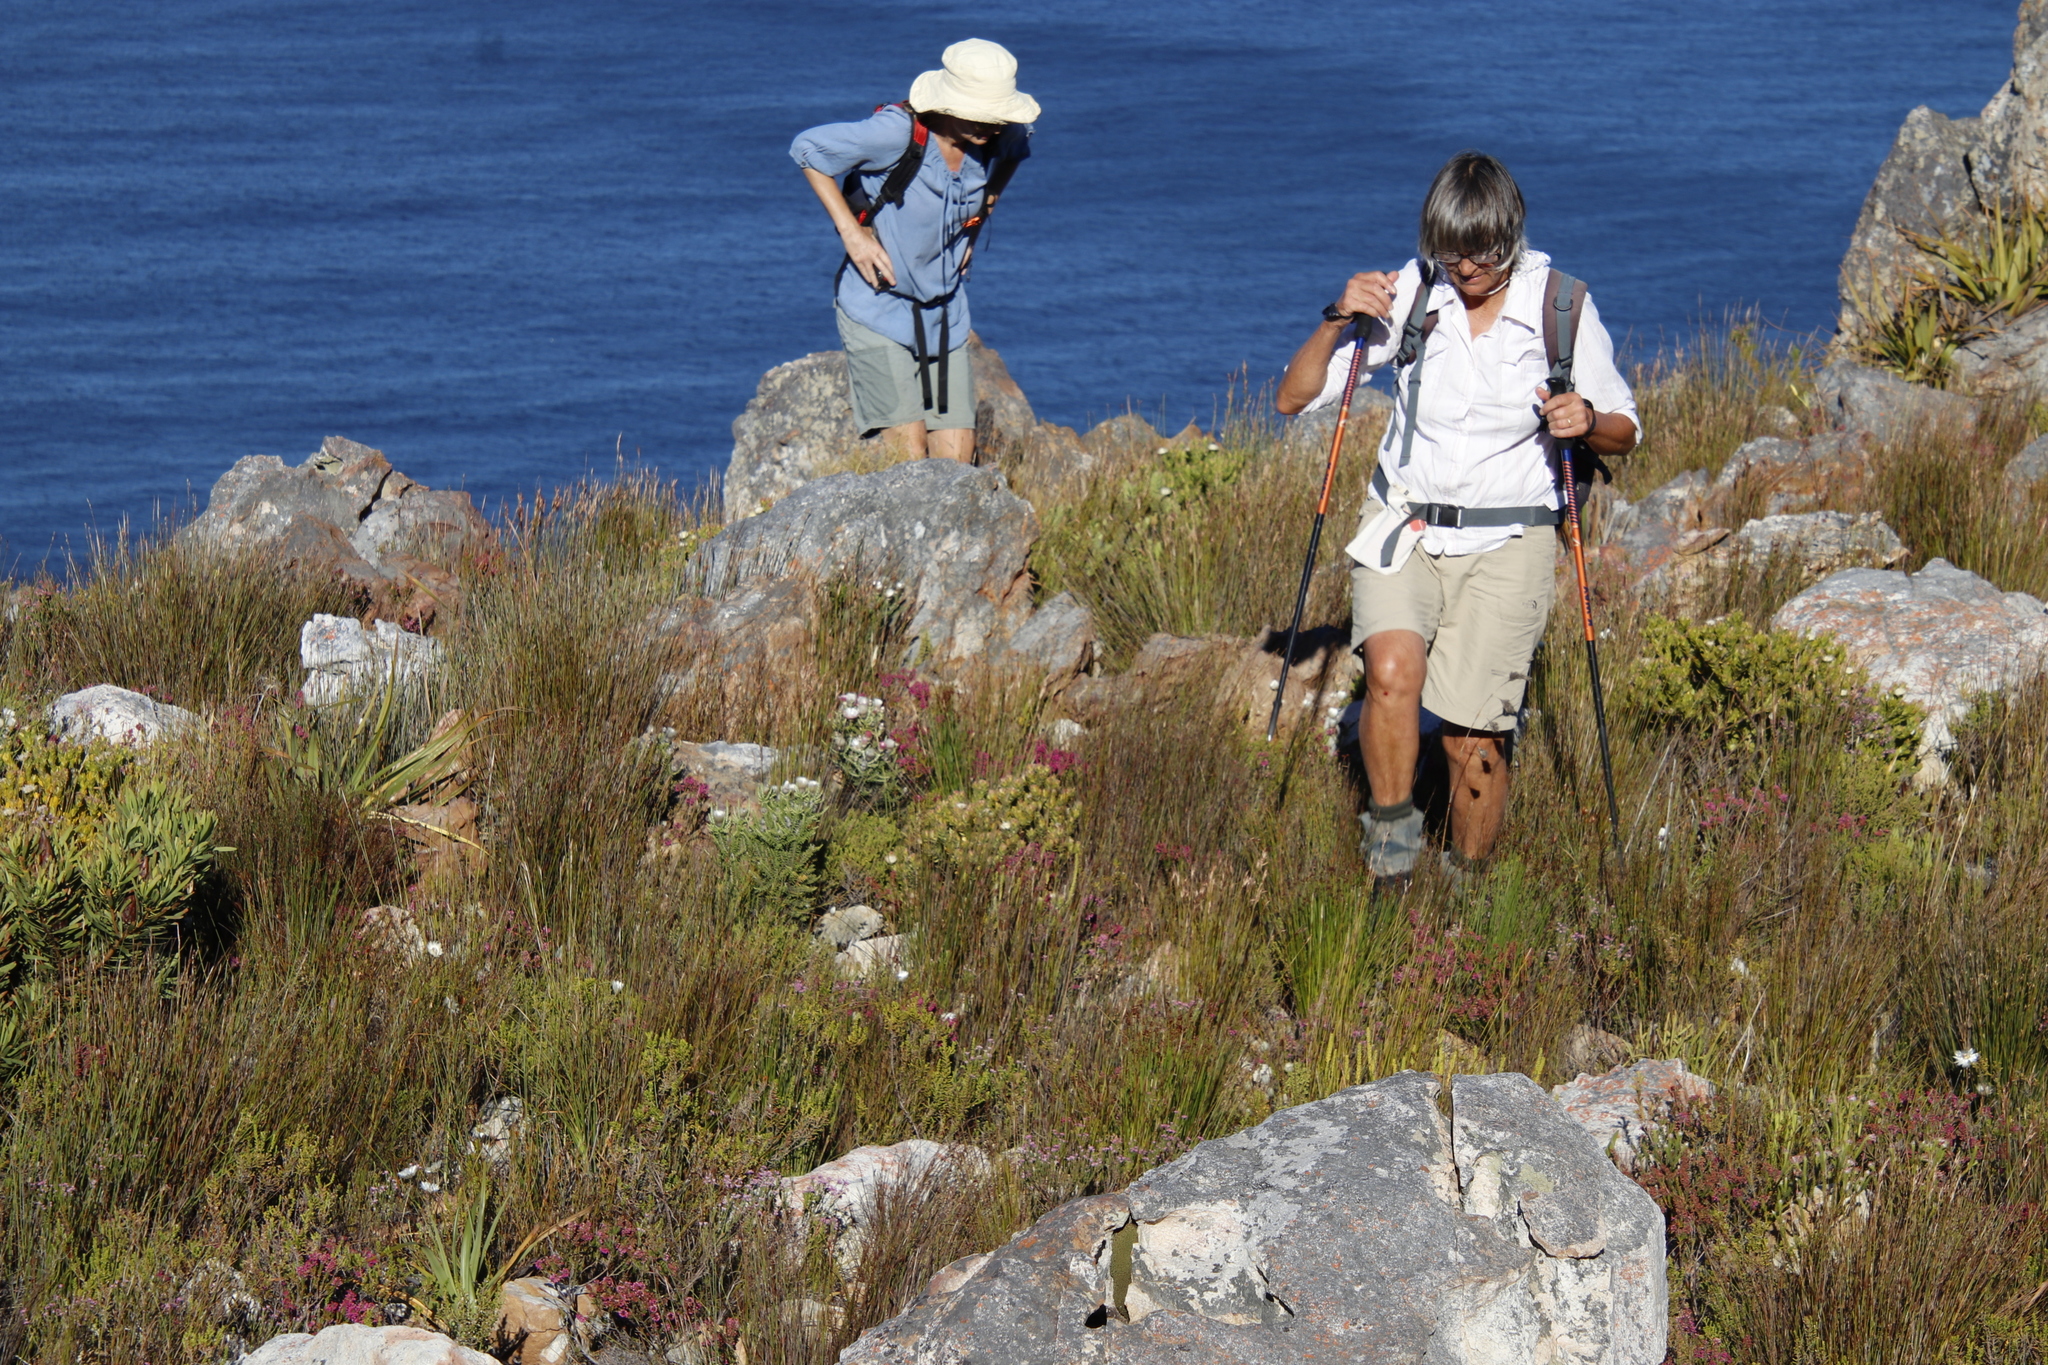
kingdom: Plantae
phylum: Tracheophyta
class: Magnoliopsida
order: Proteales
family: Proteaceae
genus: Diastella
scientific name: Diastella thymelaeoides
